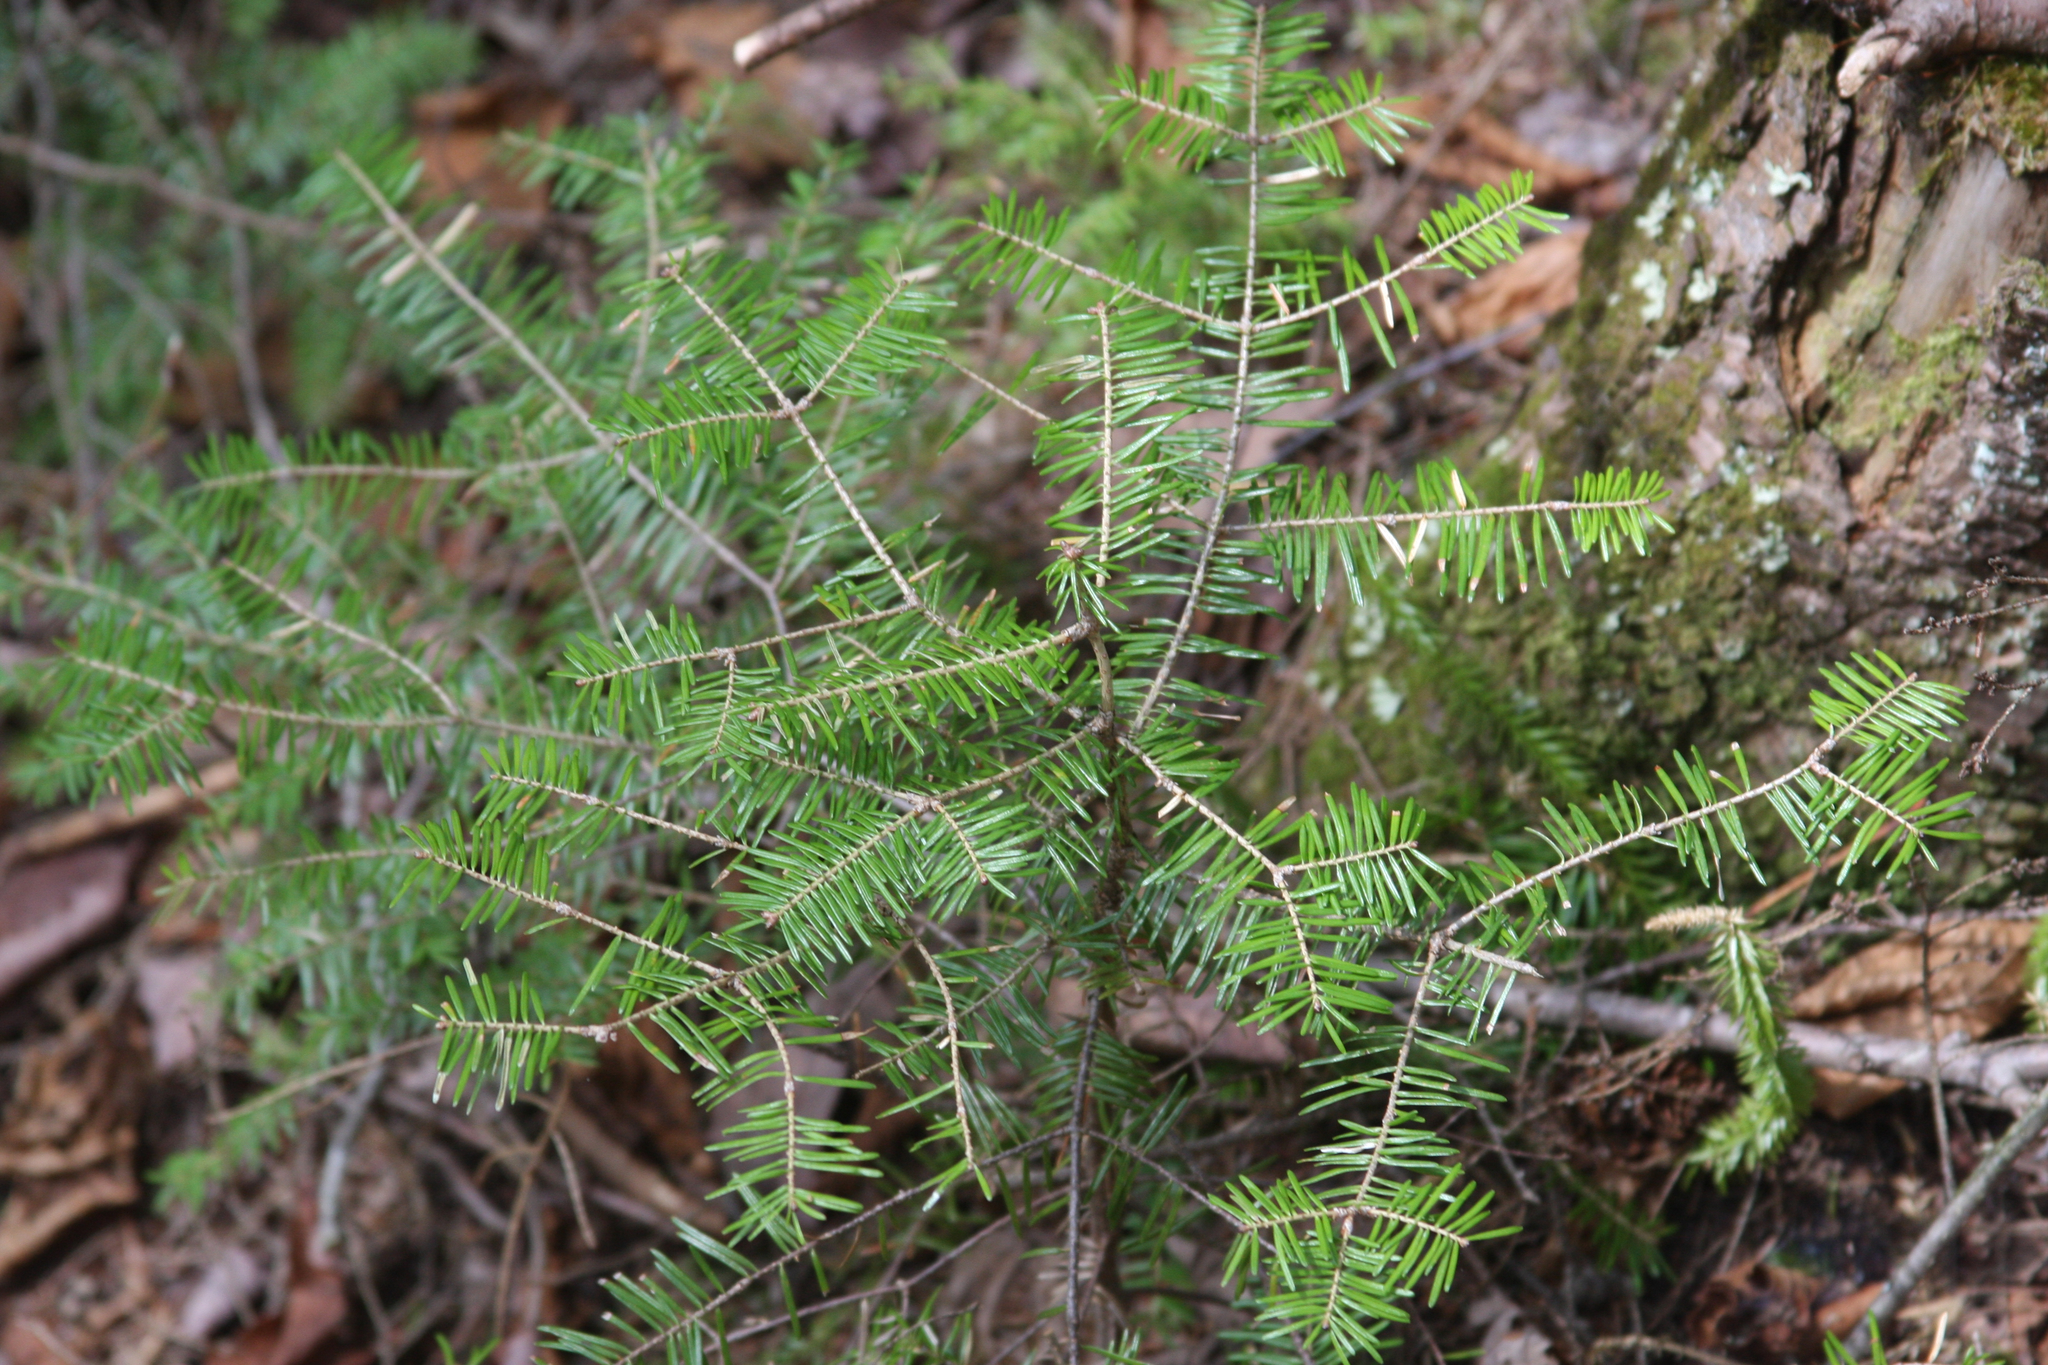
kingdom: Plantae
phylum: Tracheophyta
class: Pinopsida
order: Pinales
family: Pinaceae
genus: Abies
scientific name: Abies balsamea
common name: Balsam fir
